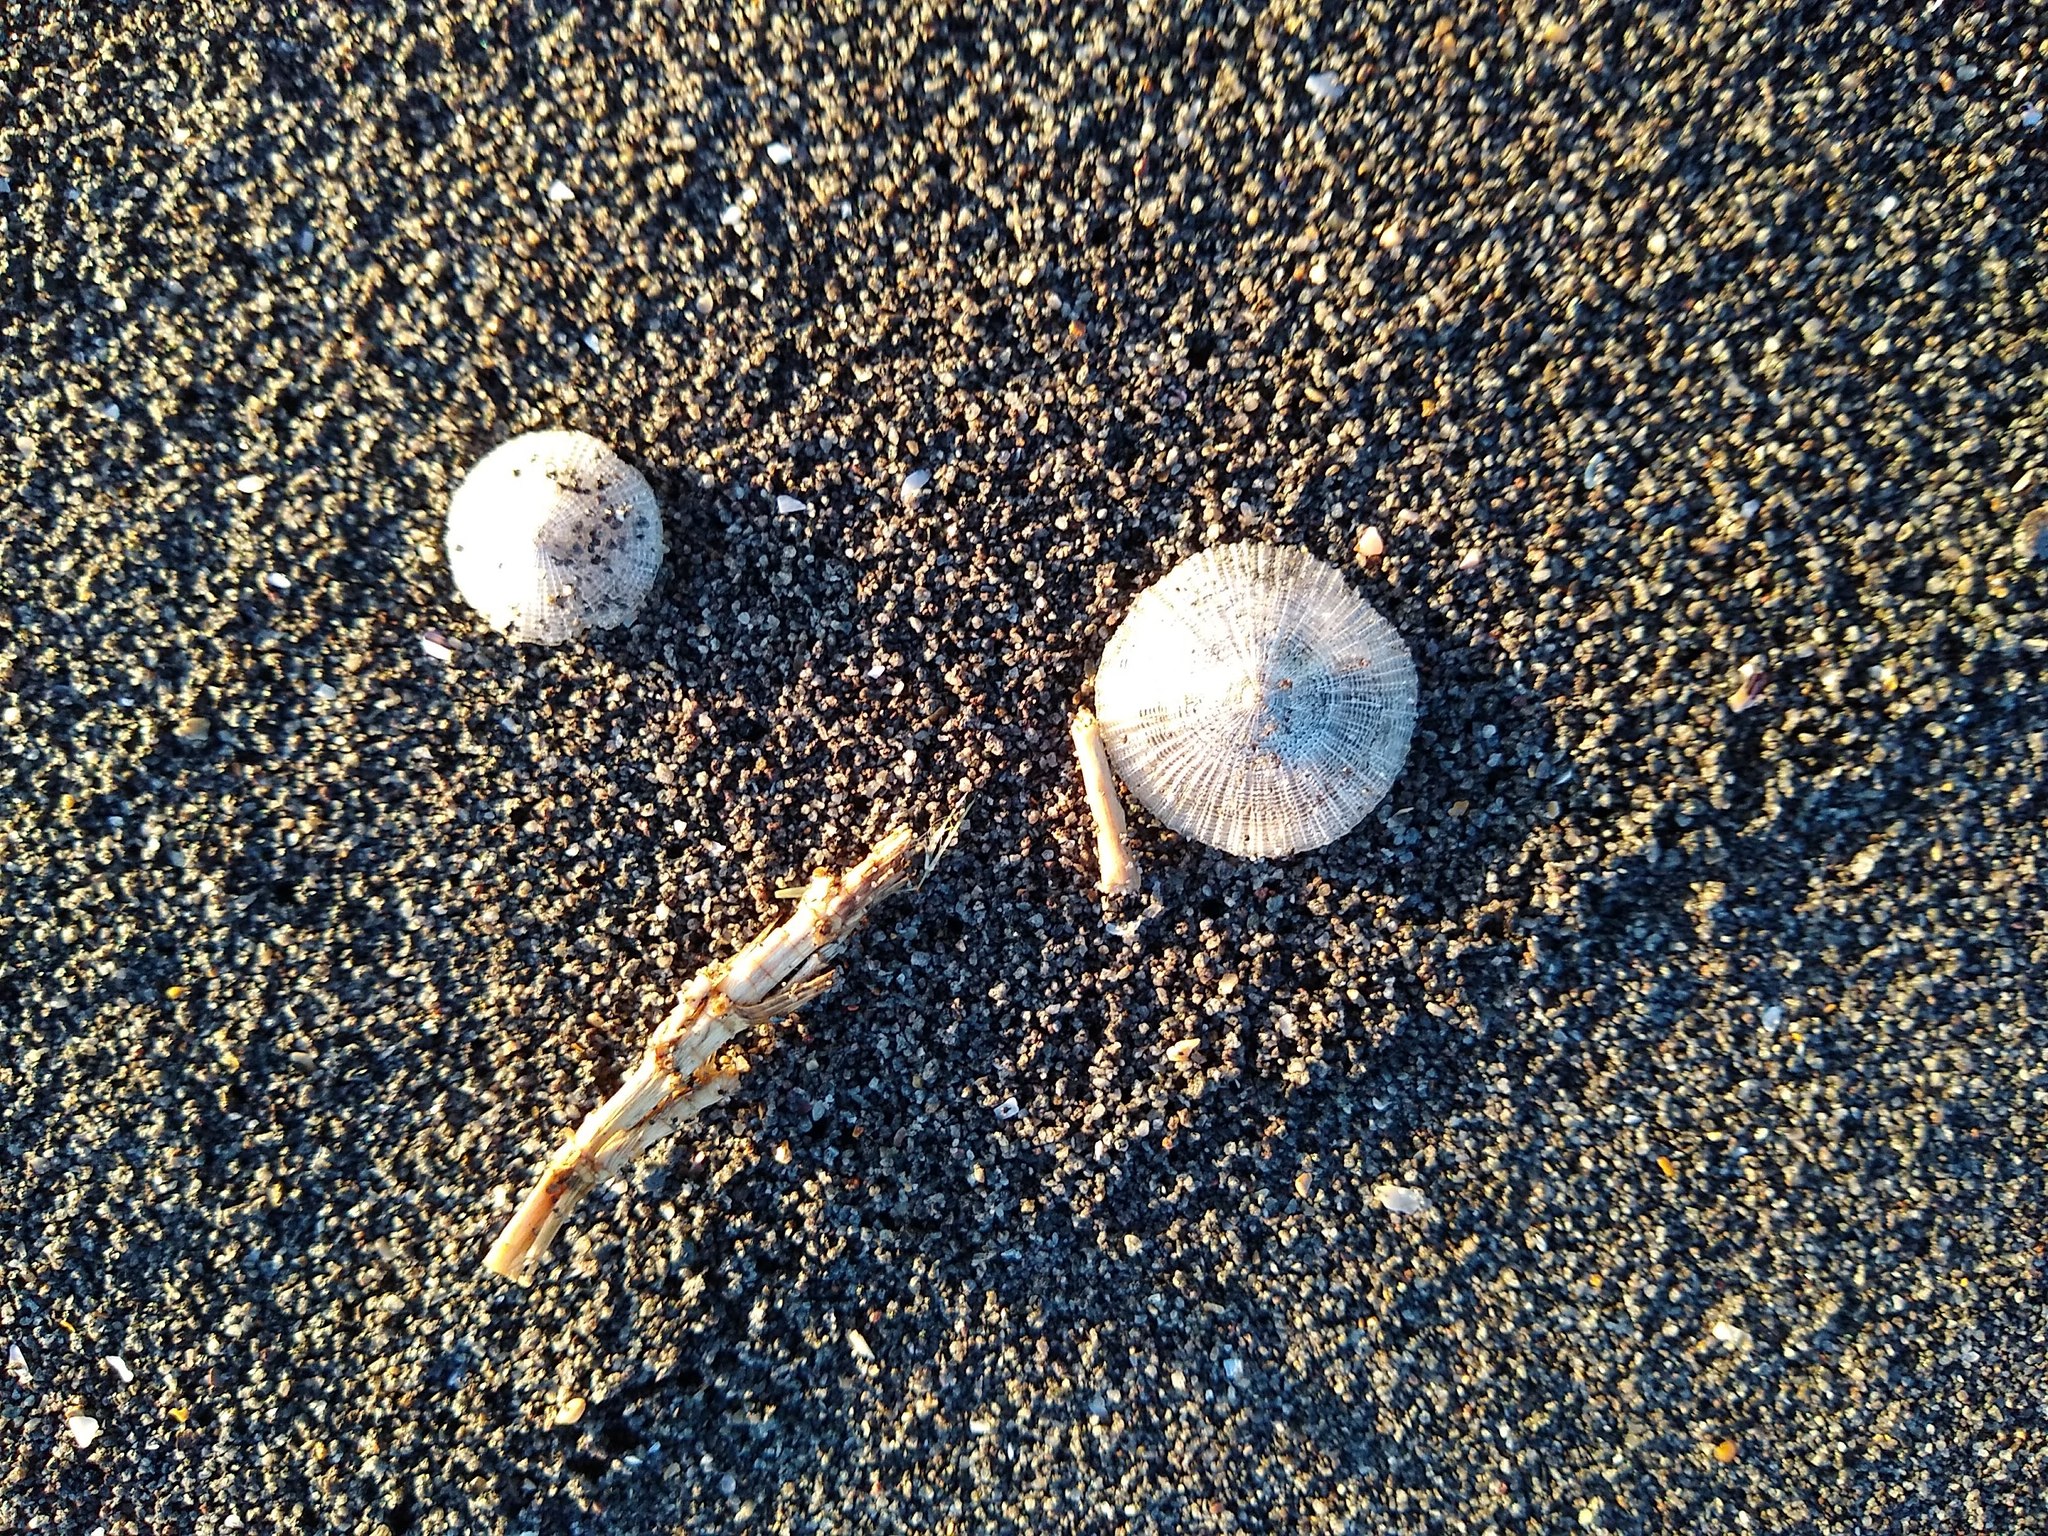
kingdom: Animalia
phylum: Cnidaria
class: Hydrozoa
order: Anthoathecata
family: Porpitidae
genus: Porpita
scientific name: Porpita porpita
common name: Blue button
